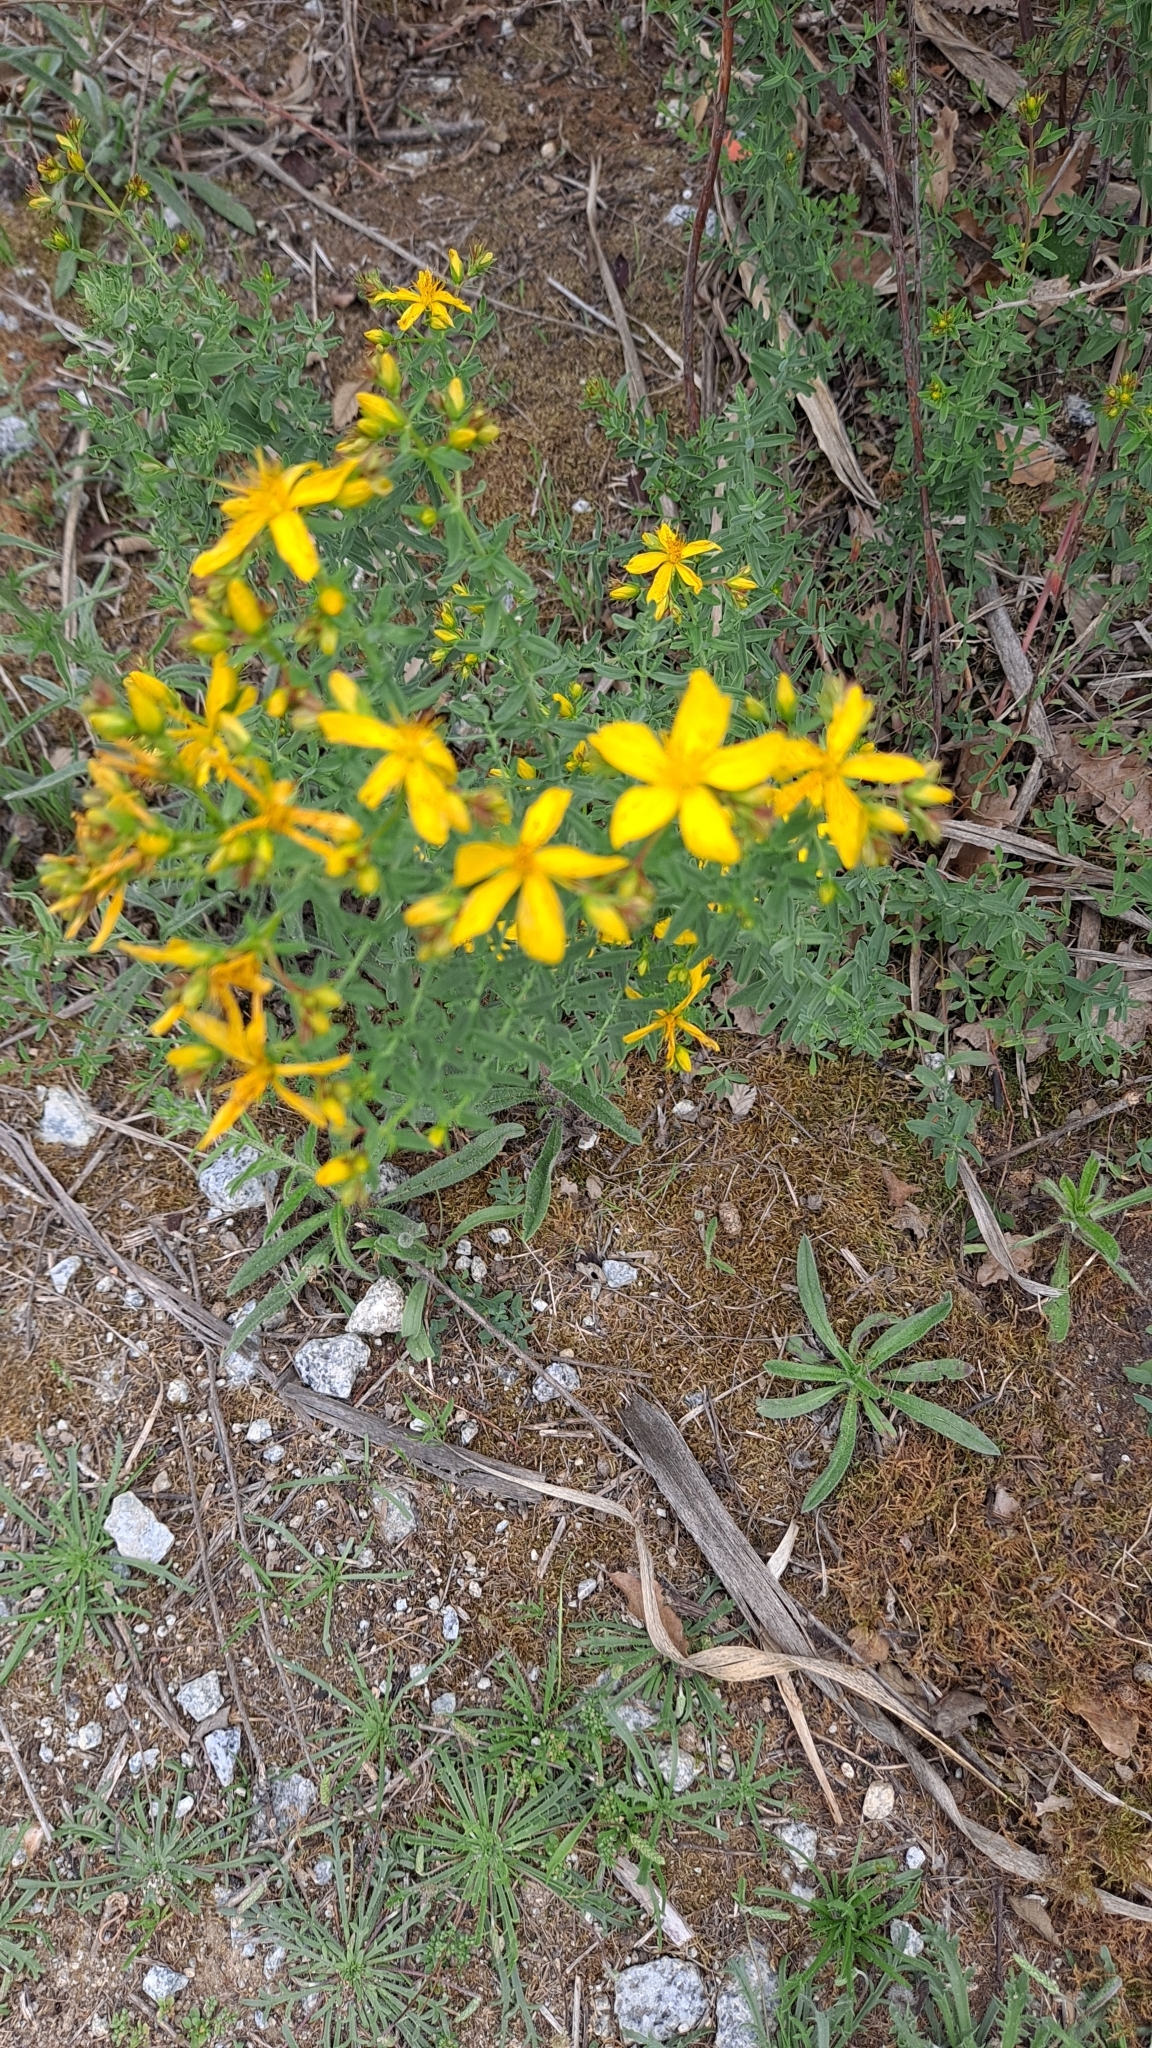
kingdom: Plantae
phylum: Tracheophyta
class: Magnoliopsida
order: Malpighiales
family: Hypericaceae
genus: Hypericum
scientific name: Hypericum perforatum
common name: Common st. johnswort
